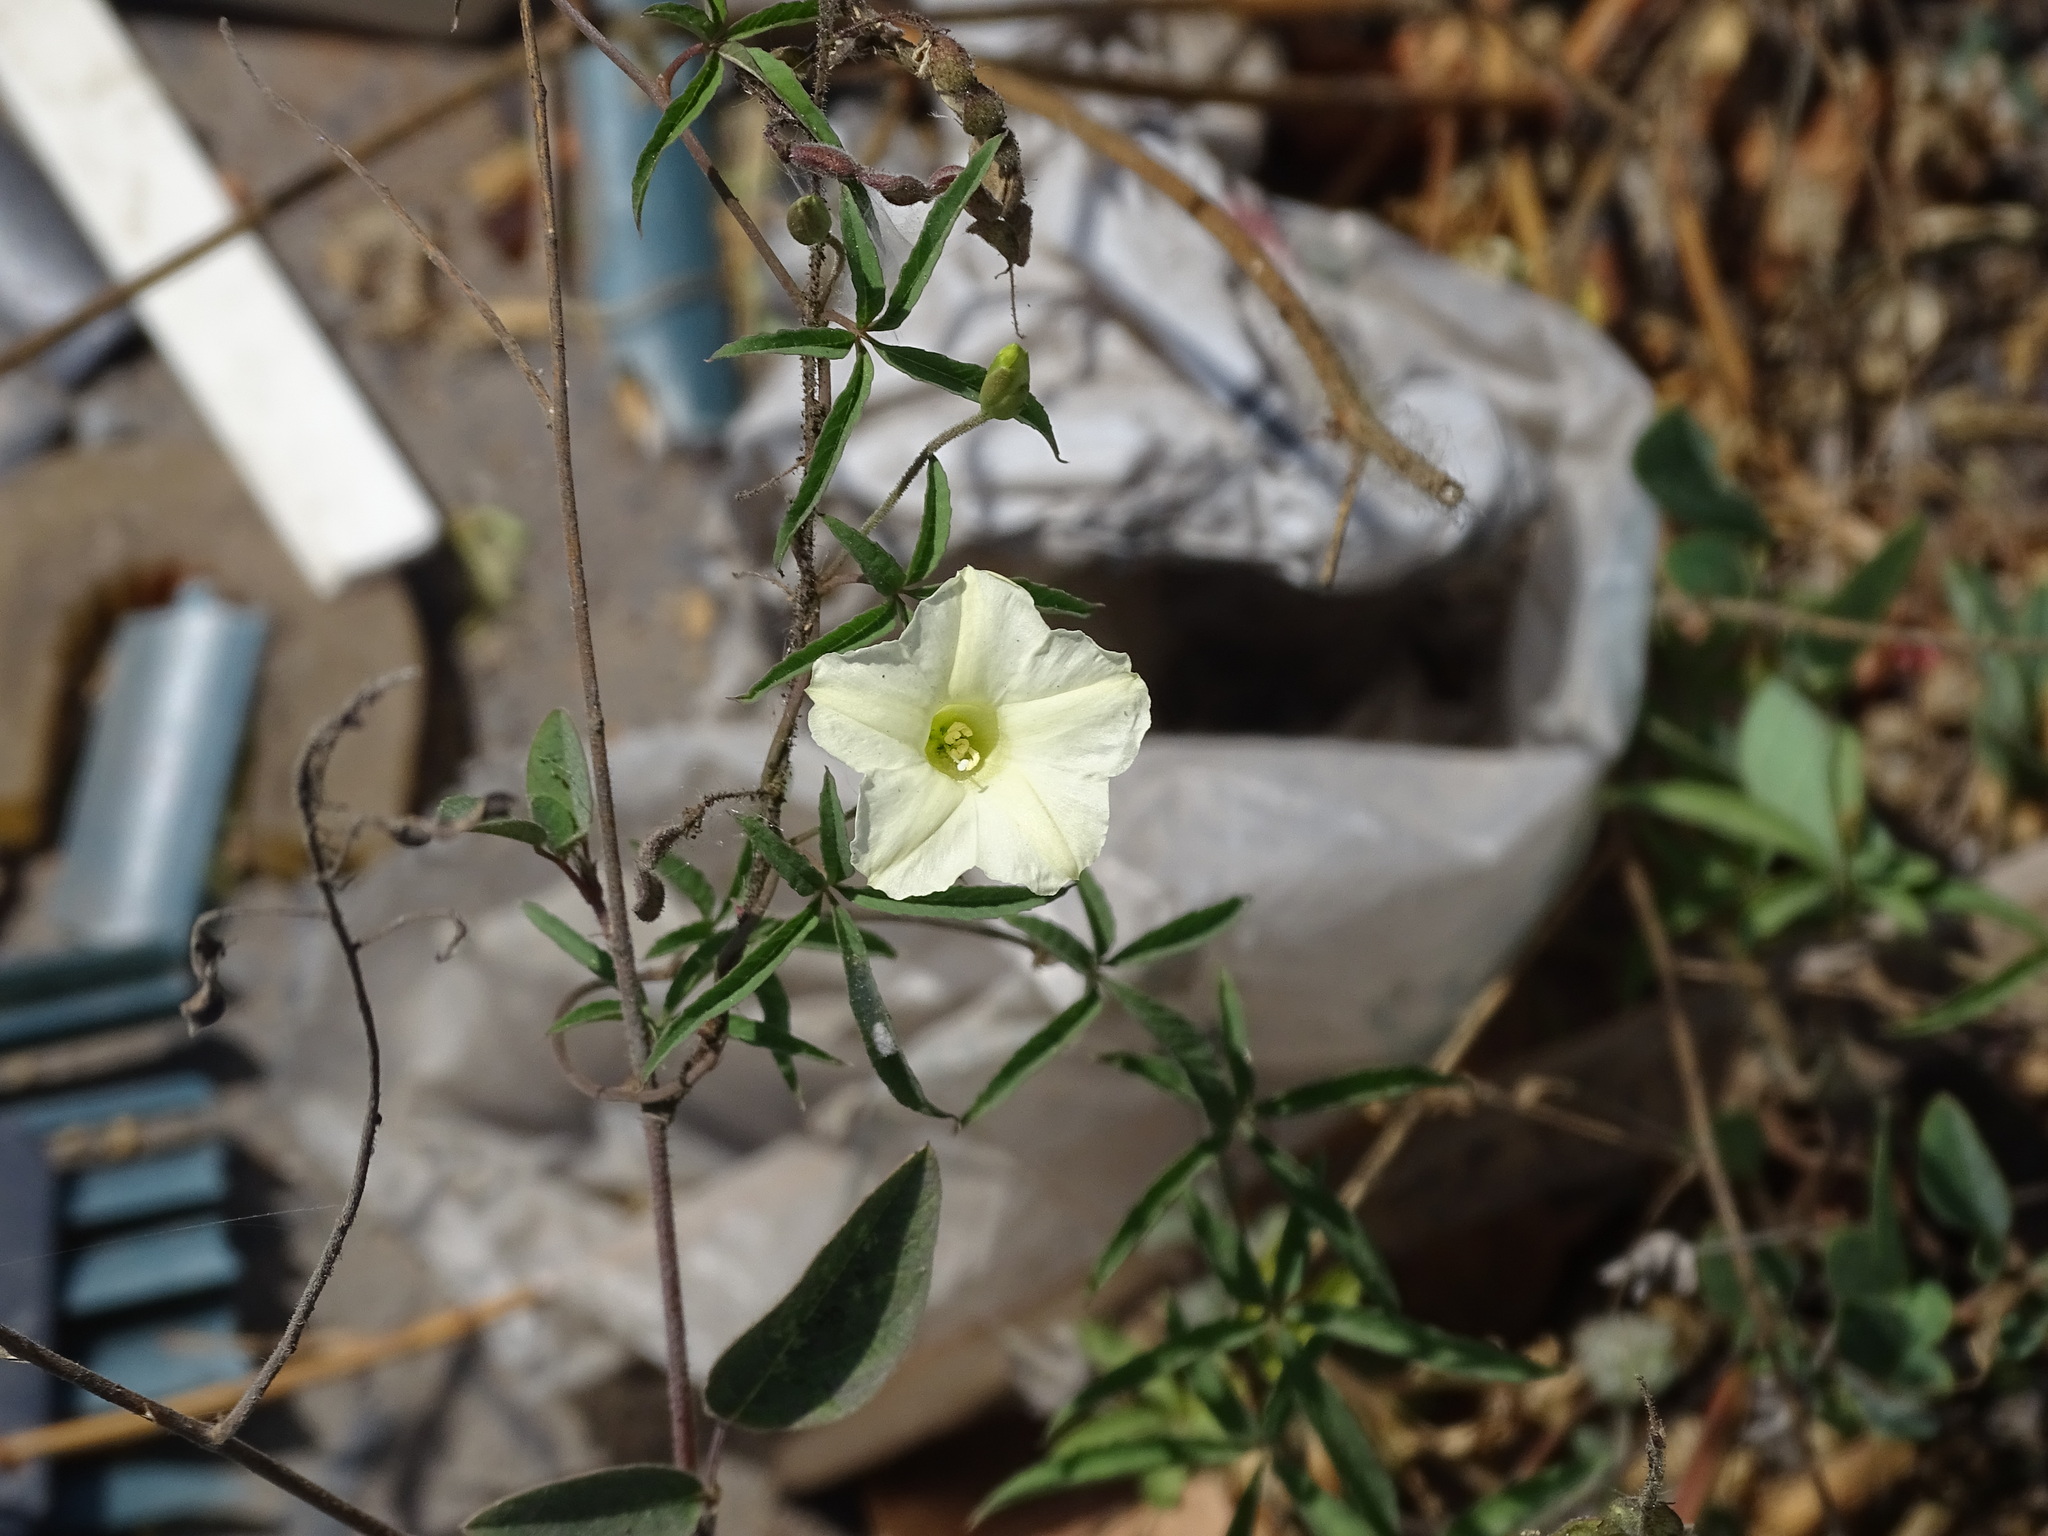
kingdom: Plantae
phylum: Tracheophyta
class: Magnoliopsida
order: Solanales
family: Convolvulaceae
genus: Distimake
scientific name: Distimake quinquefolius
